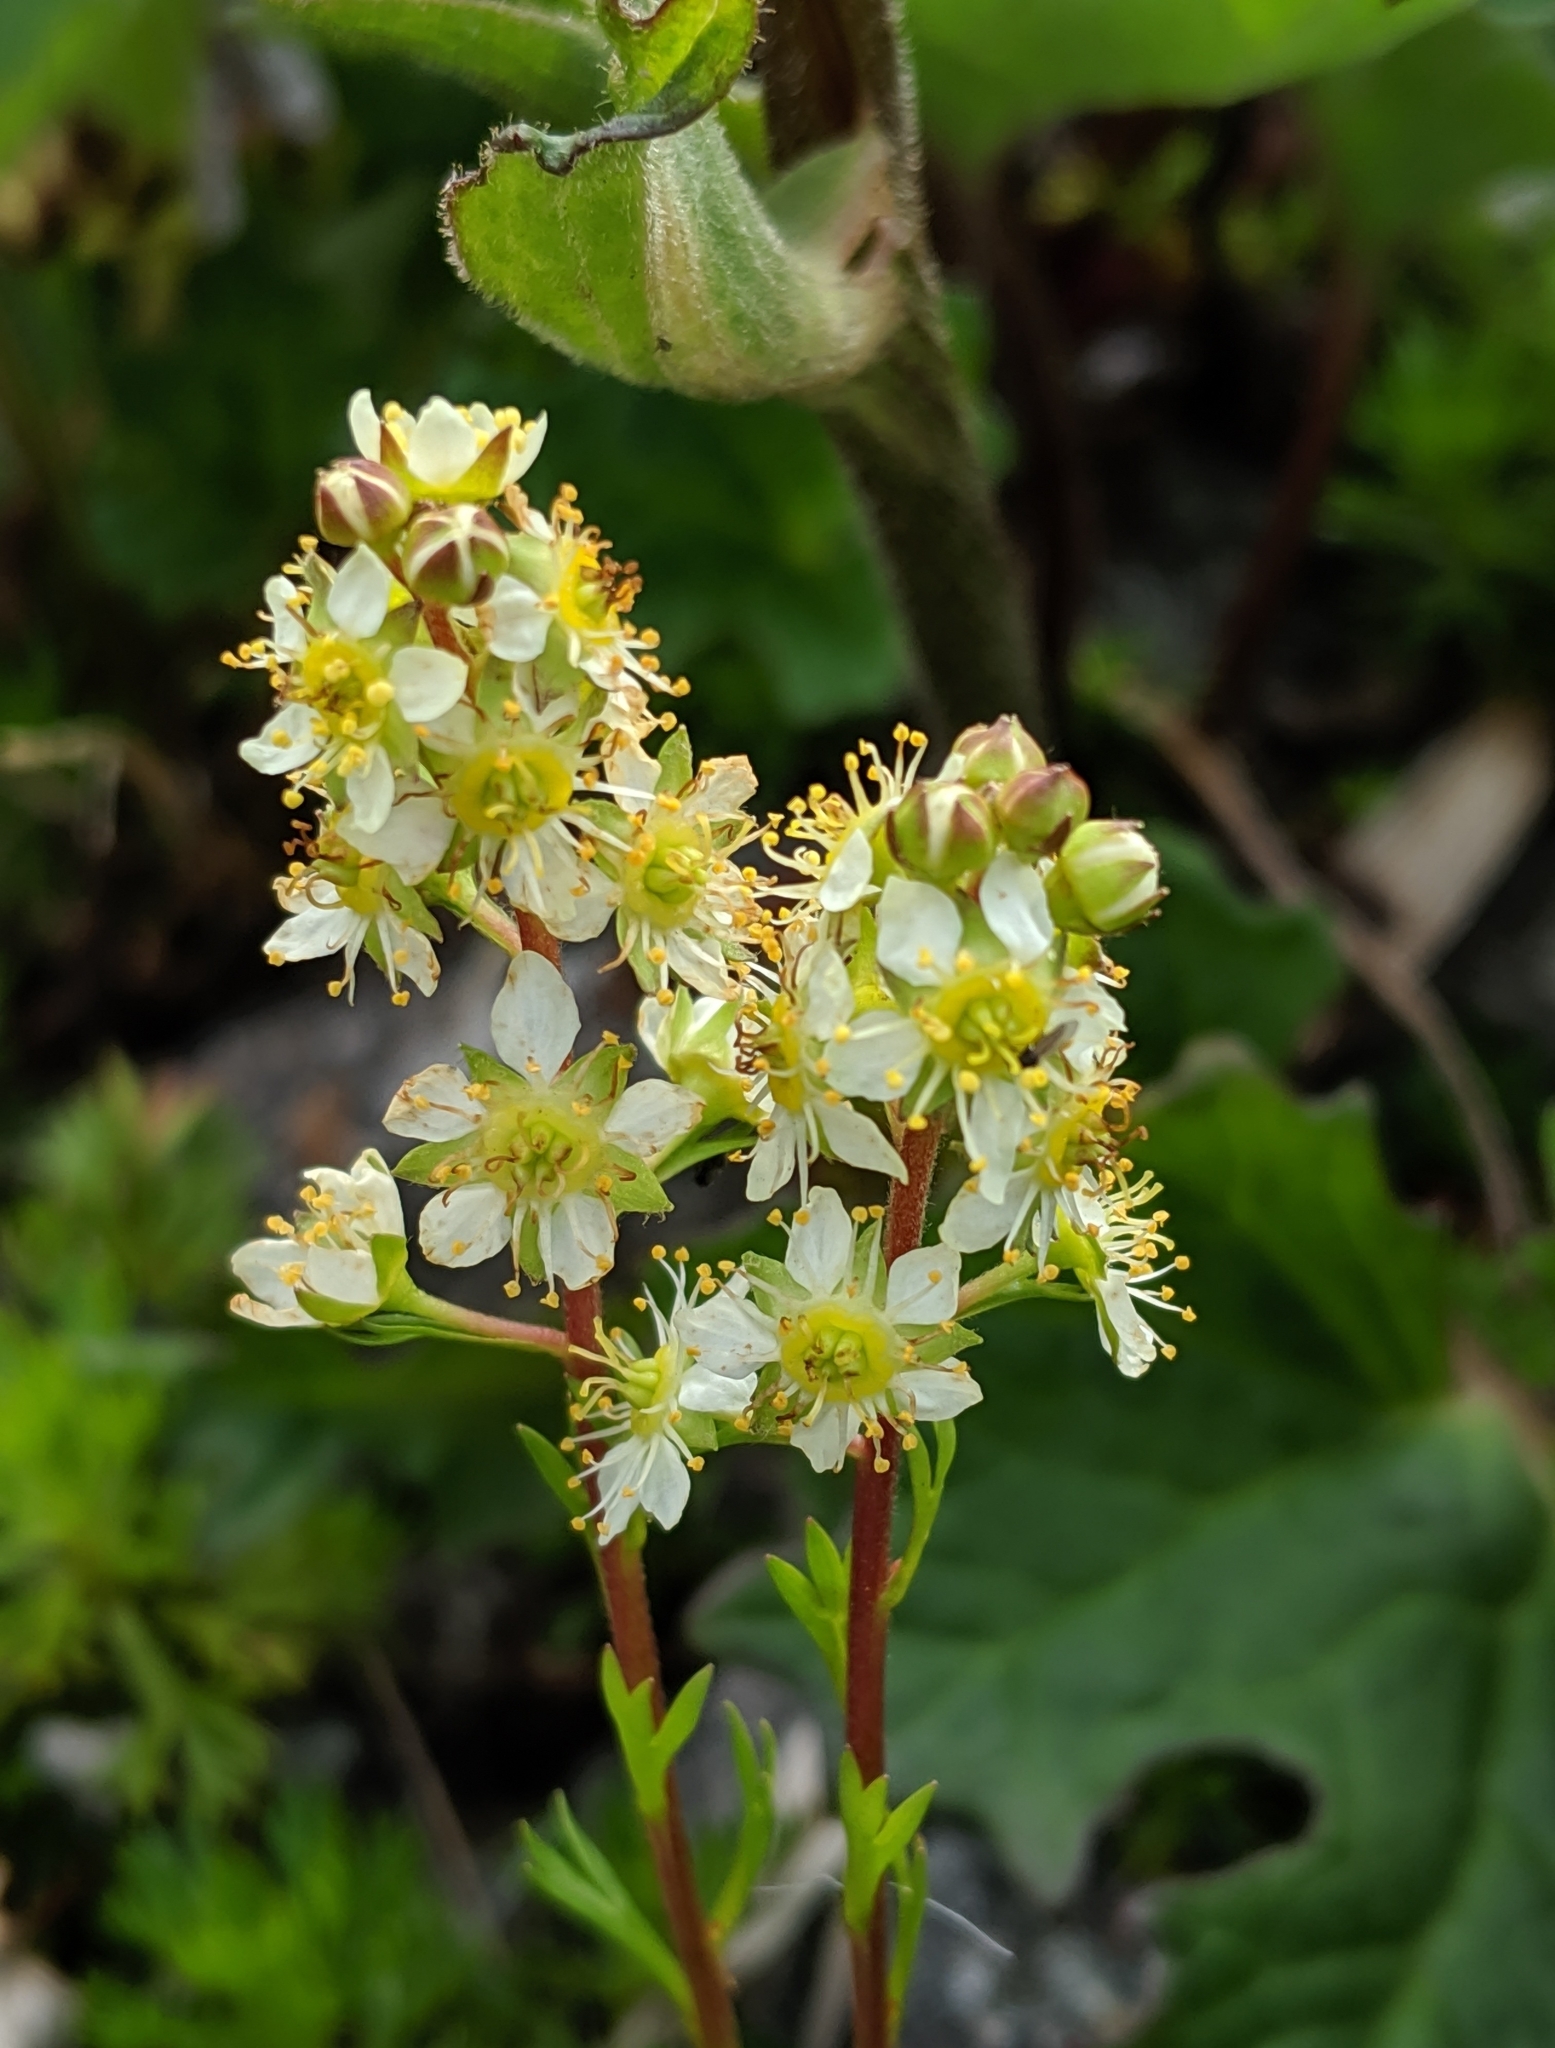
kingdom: Plantae
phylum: Tracheophyta
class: Magnoliopsida
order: Rosales
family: Rosaceae
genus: Luetkea
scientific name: Luetkea pectinata
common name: Partridgefoot
